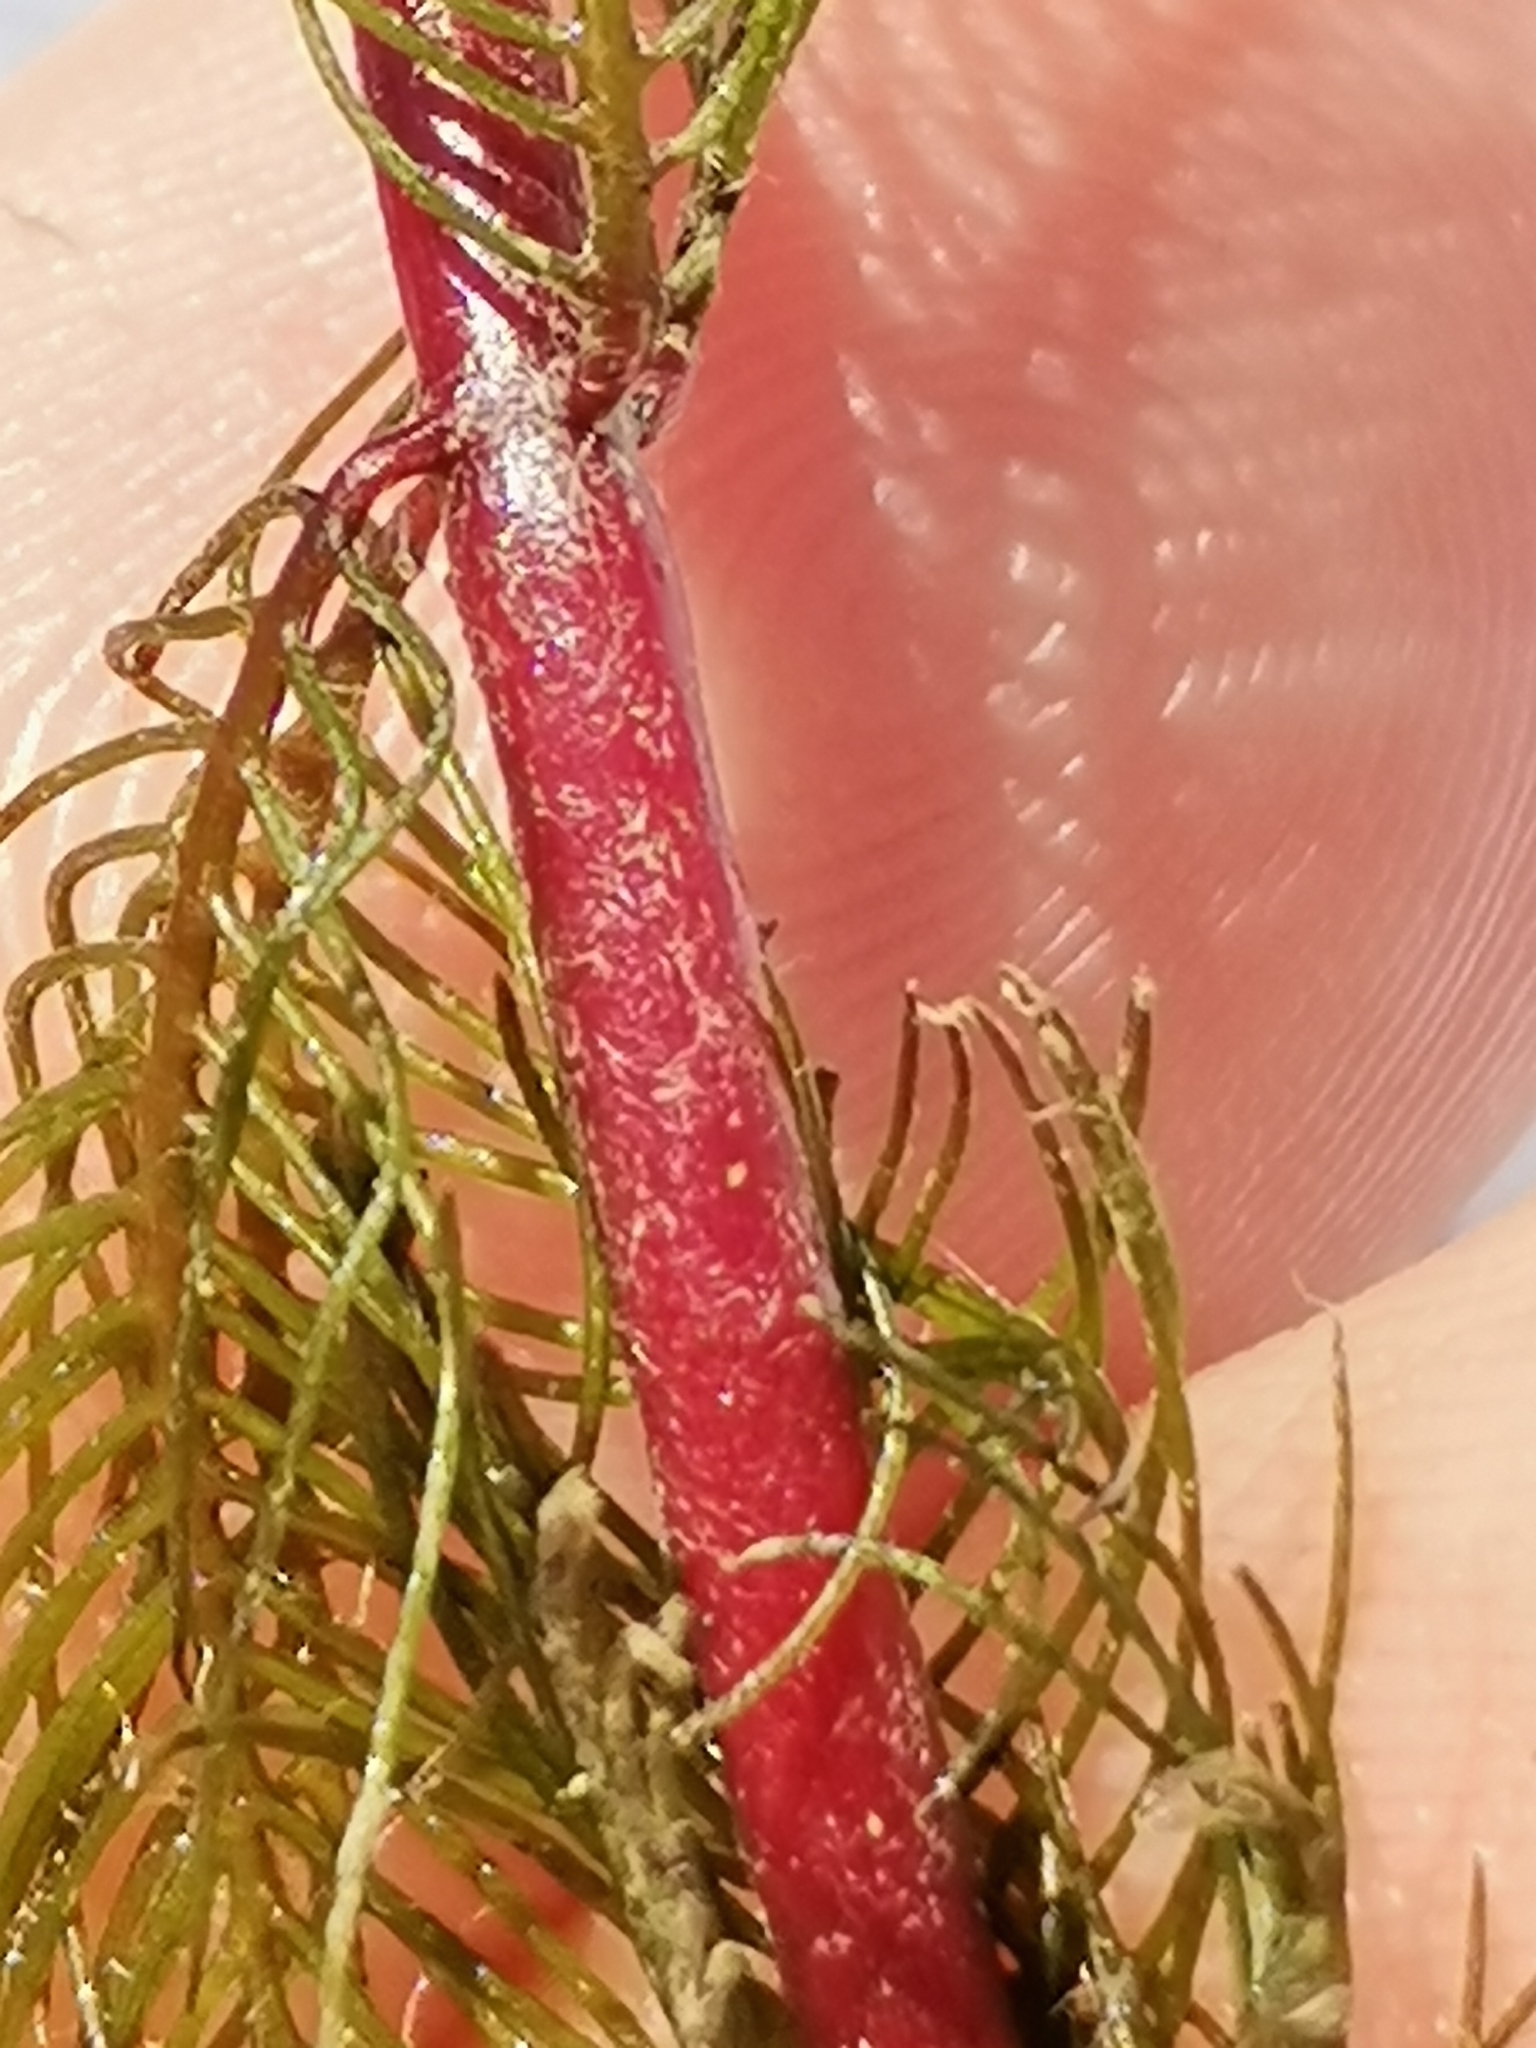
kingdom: Plantae
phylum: Tracheophyta
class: Magnoliopsida
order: Saxifragales
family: Haloragaceae
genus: Myriophyllum
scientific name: Myriophyllum spicatum
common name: Spiked water-milfoil
